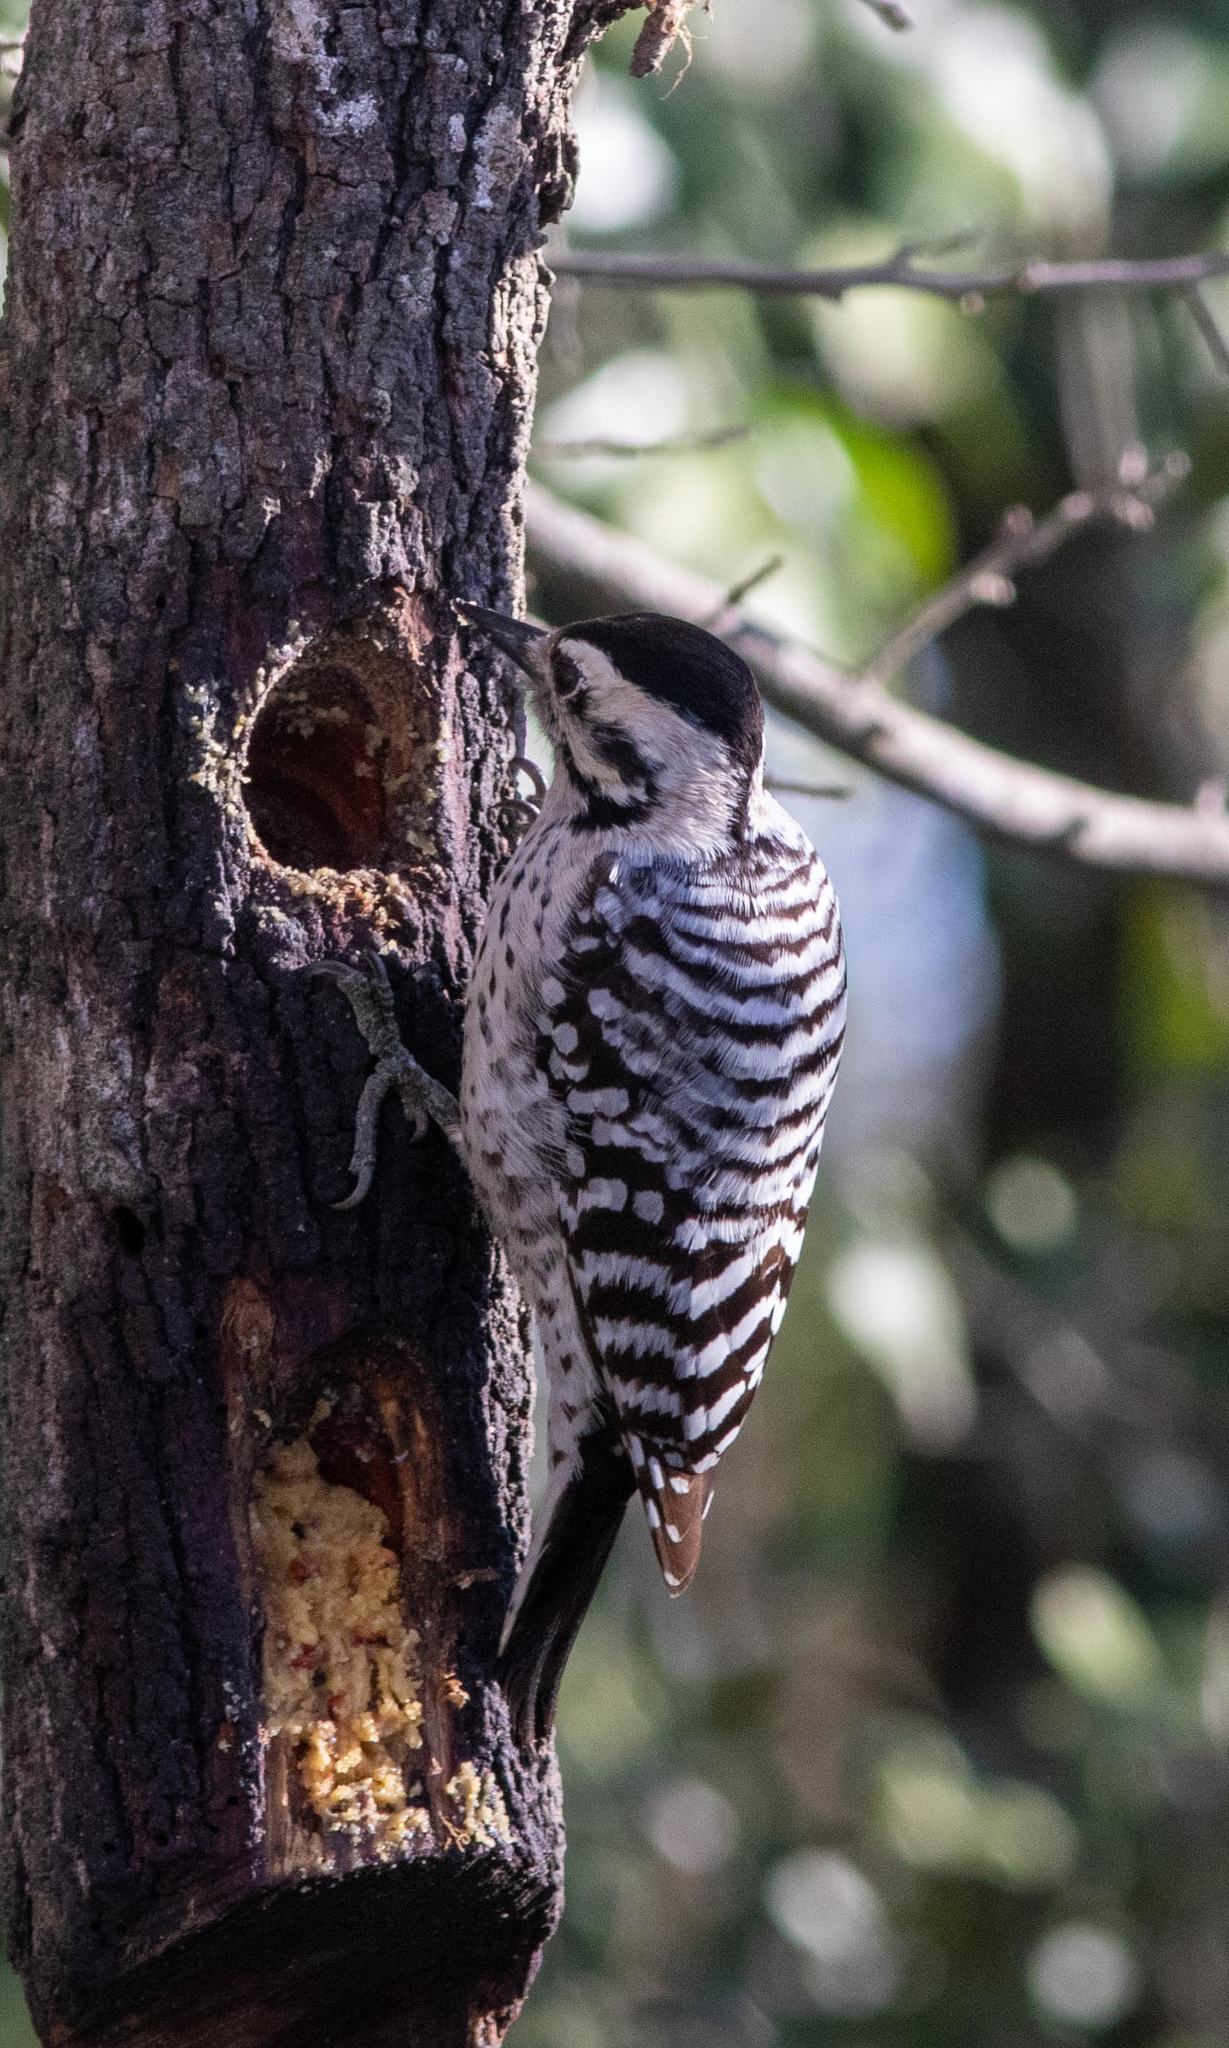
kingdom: Animalia
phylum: Chordata
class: Aves
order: Piciformes
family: Picidae
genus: Dryobates
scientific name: Dryobates scalaris
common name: Ladder-backed woodpecker
